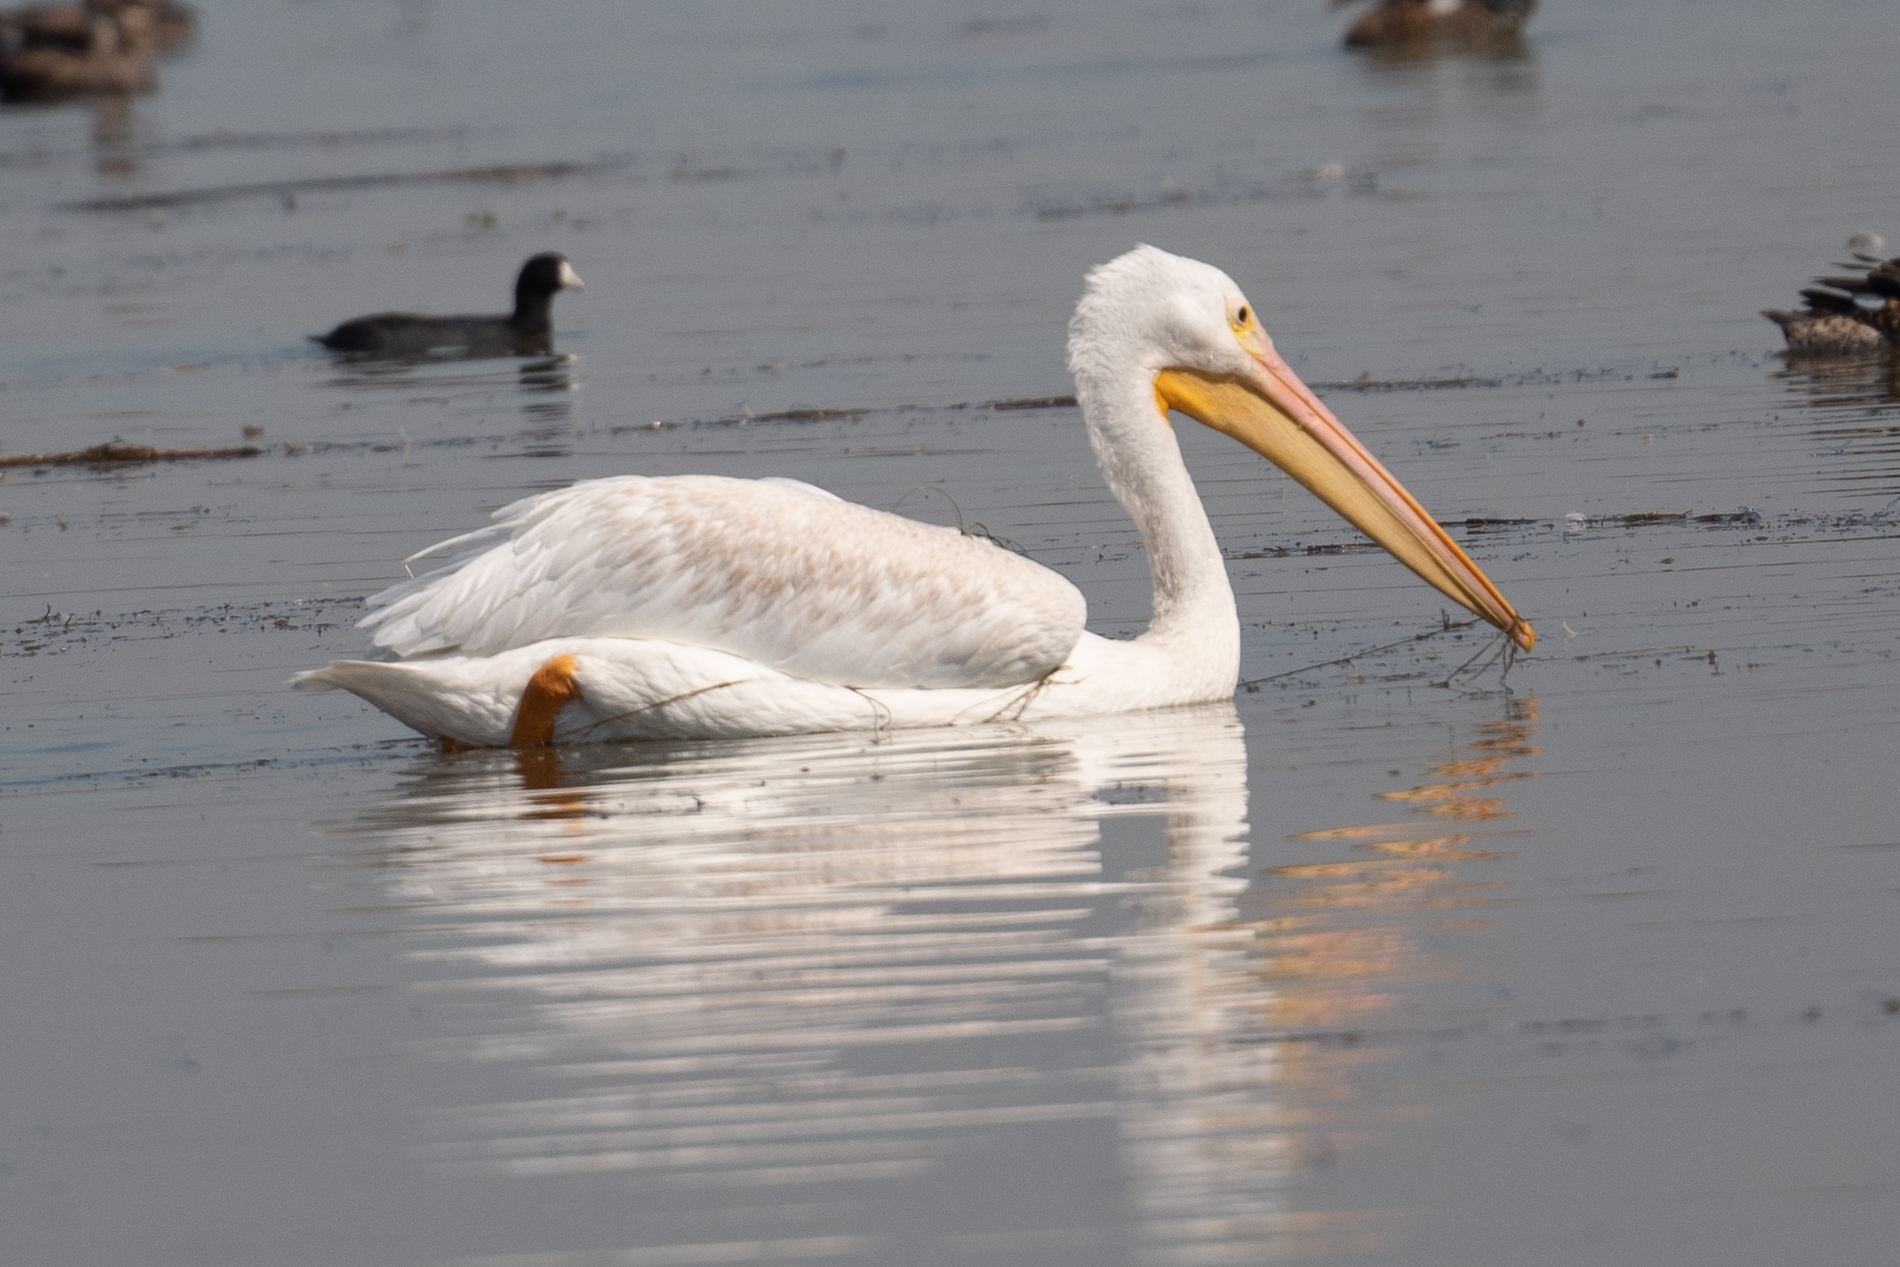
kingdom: Animalia
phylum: Chordata
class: Aves
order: Pelecaniformes
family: Pelecanidae
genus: Pelecanus
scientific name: Pelecanus erythrorhynchos
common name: American white pelican
